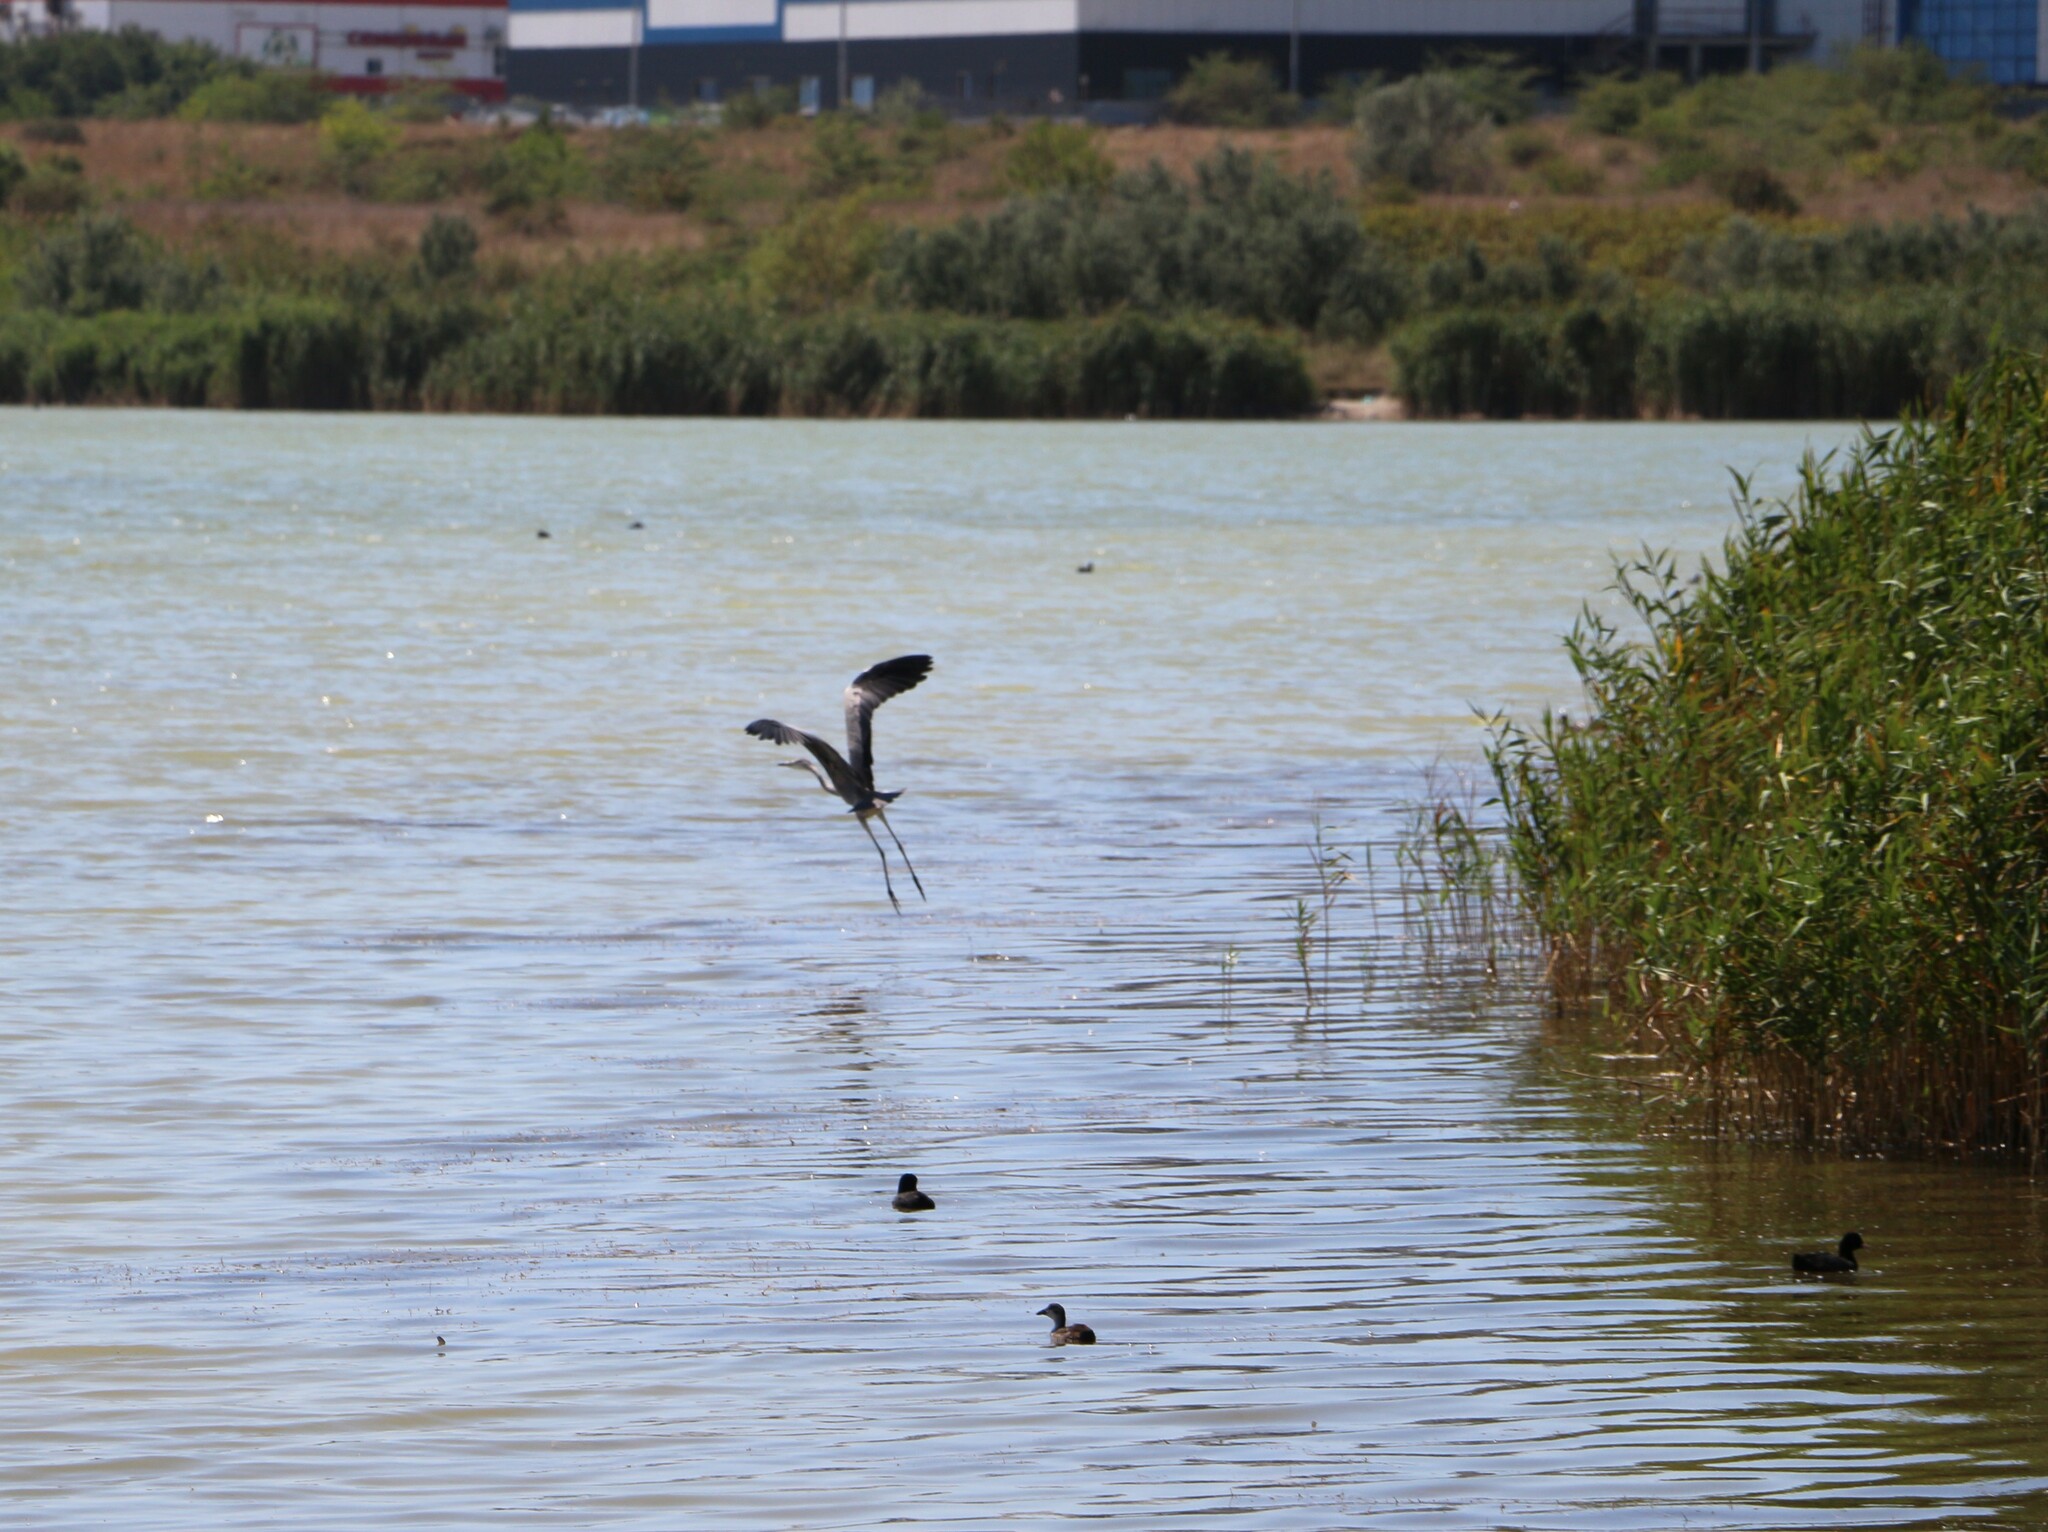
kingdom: Animalia
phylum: Chordata
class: Aves
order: Pelecaniformes
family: Ardeidae
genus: Ardea
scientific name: Ardea cinerea
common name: Grey heron
